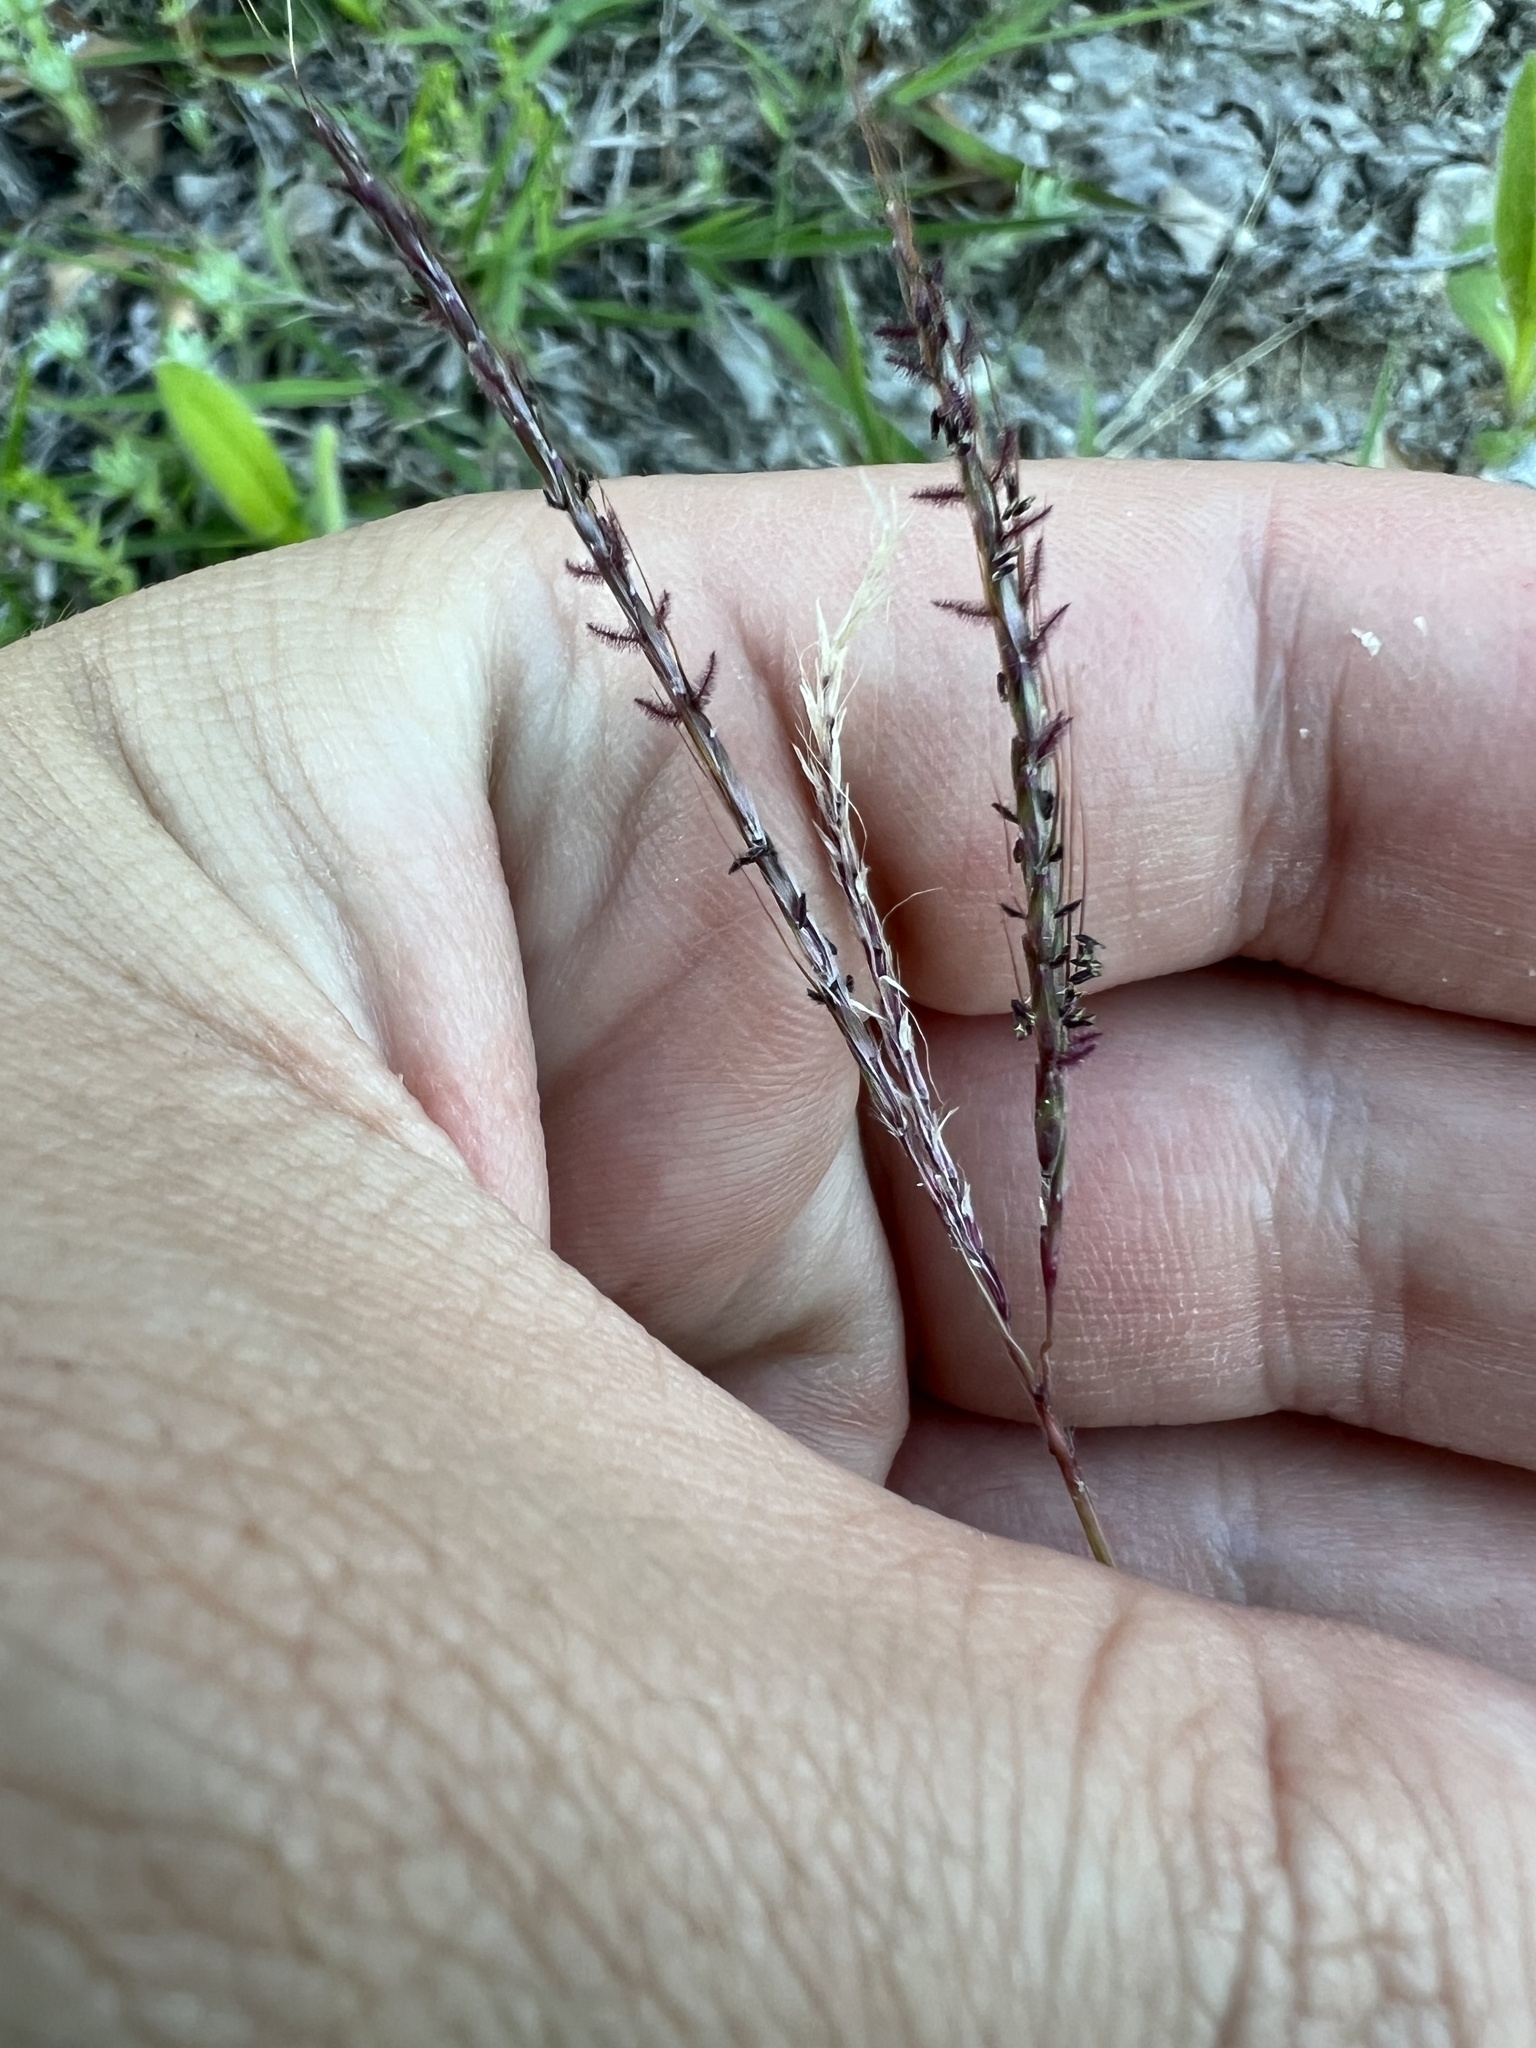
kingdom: Plantae
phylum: Tracheophyta
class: Liliopsida
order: Poales
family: Poaceae
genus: Bothriochloa
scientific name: Bothriochloa ischaemum
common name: Yellow bluestem
